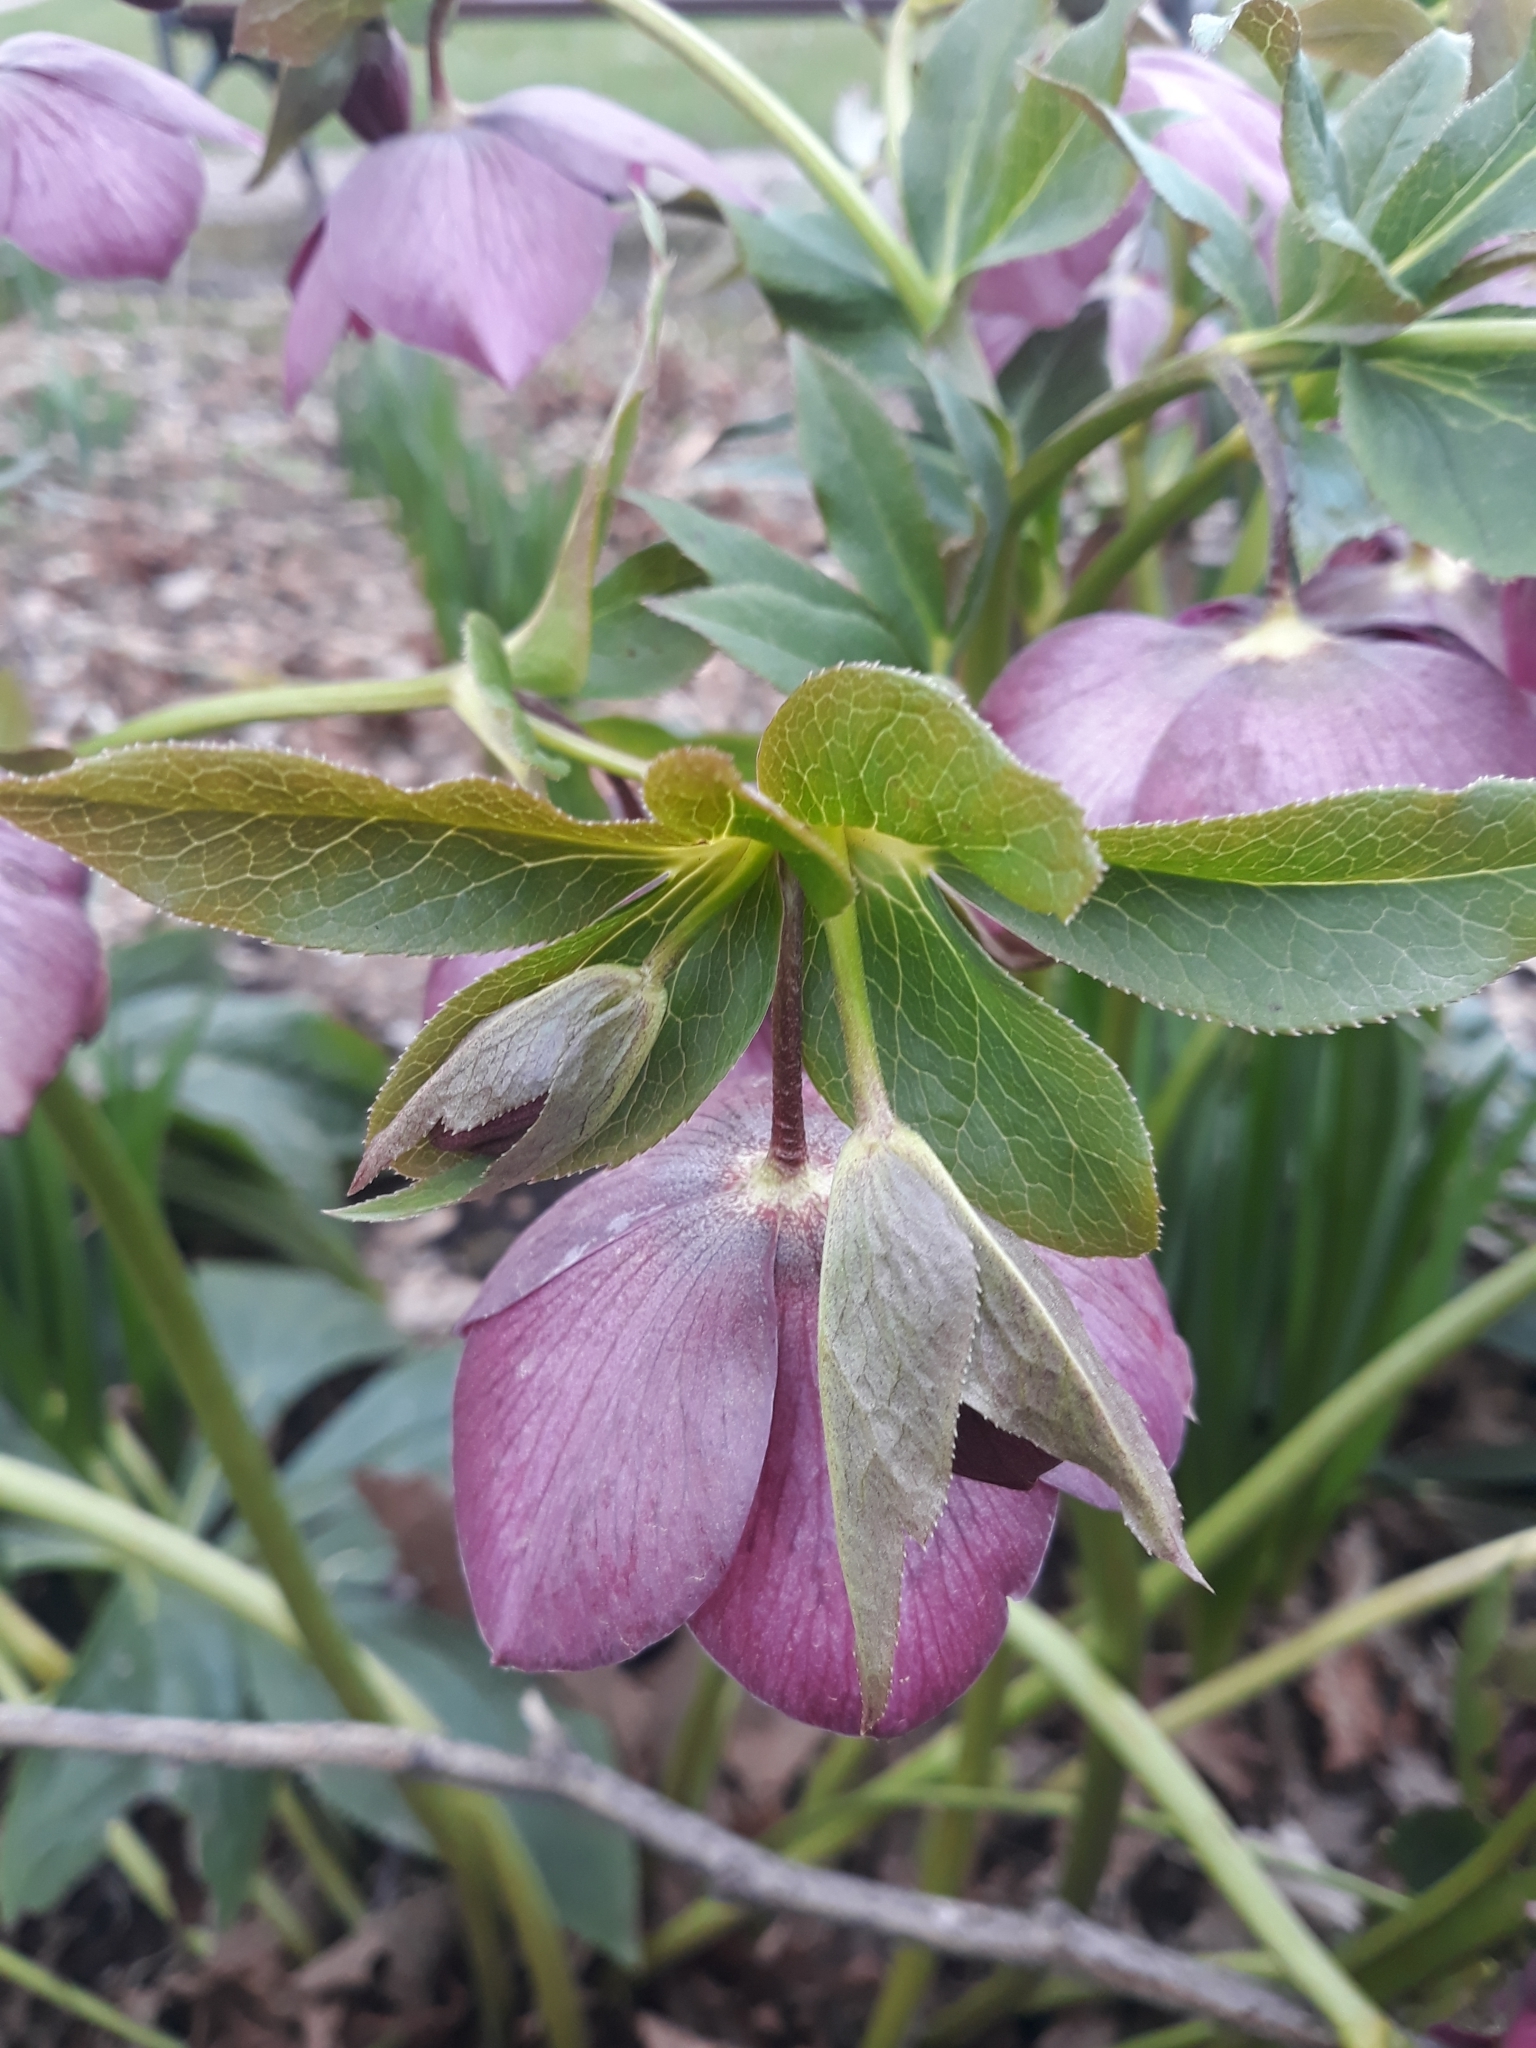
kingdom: Plantae
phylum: Tracheophyta
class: Magnoliopsida
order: Ranunculales
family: Ranunculaceae
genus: Helleborus
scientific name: Helleborus orientalis
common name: Lenten-rose
